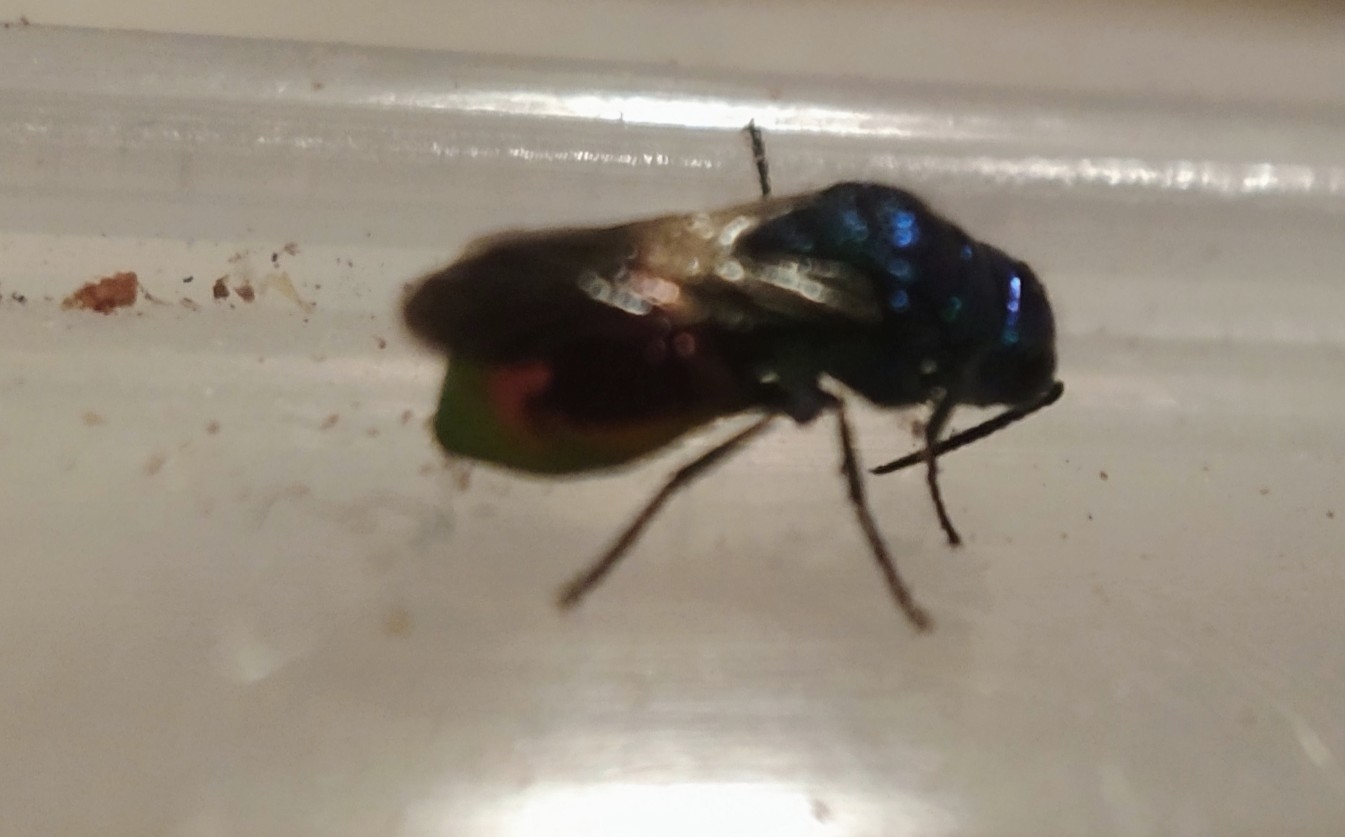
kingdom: Animalia
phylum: Arthropoda
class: Insecta
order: Hymenoptera
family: Chrysididae
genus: Pseudomalus
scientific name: Pseudomalus auratus
